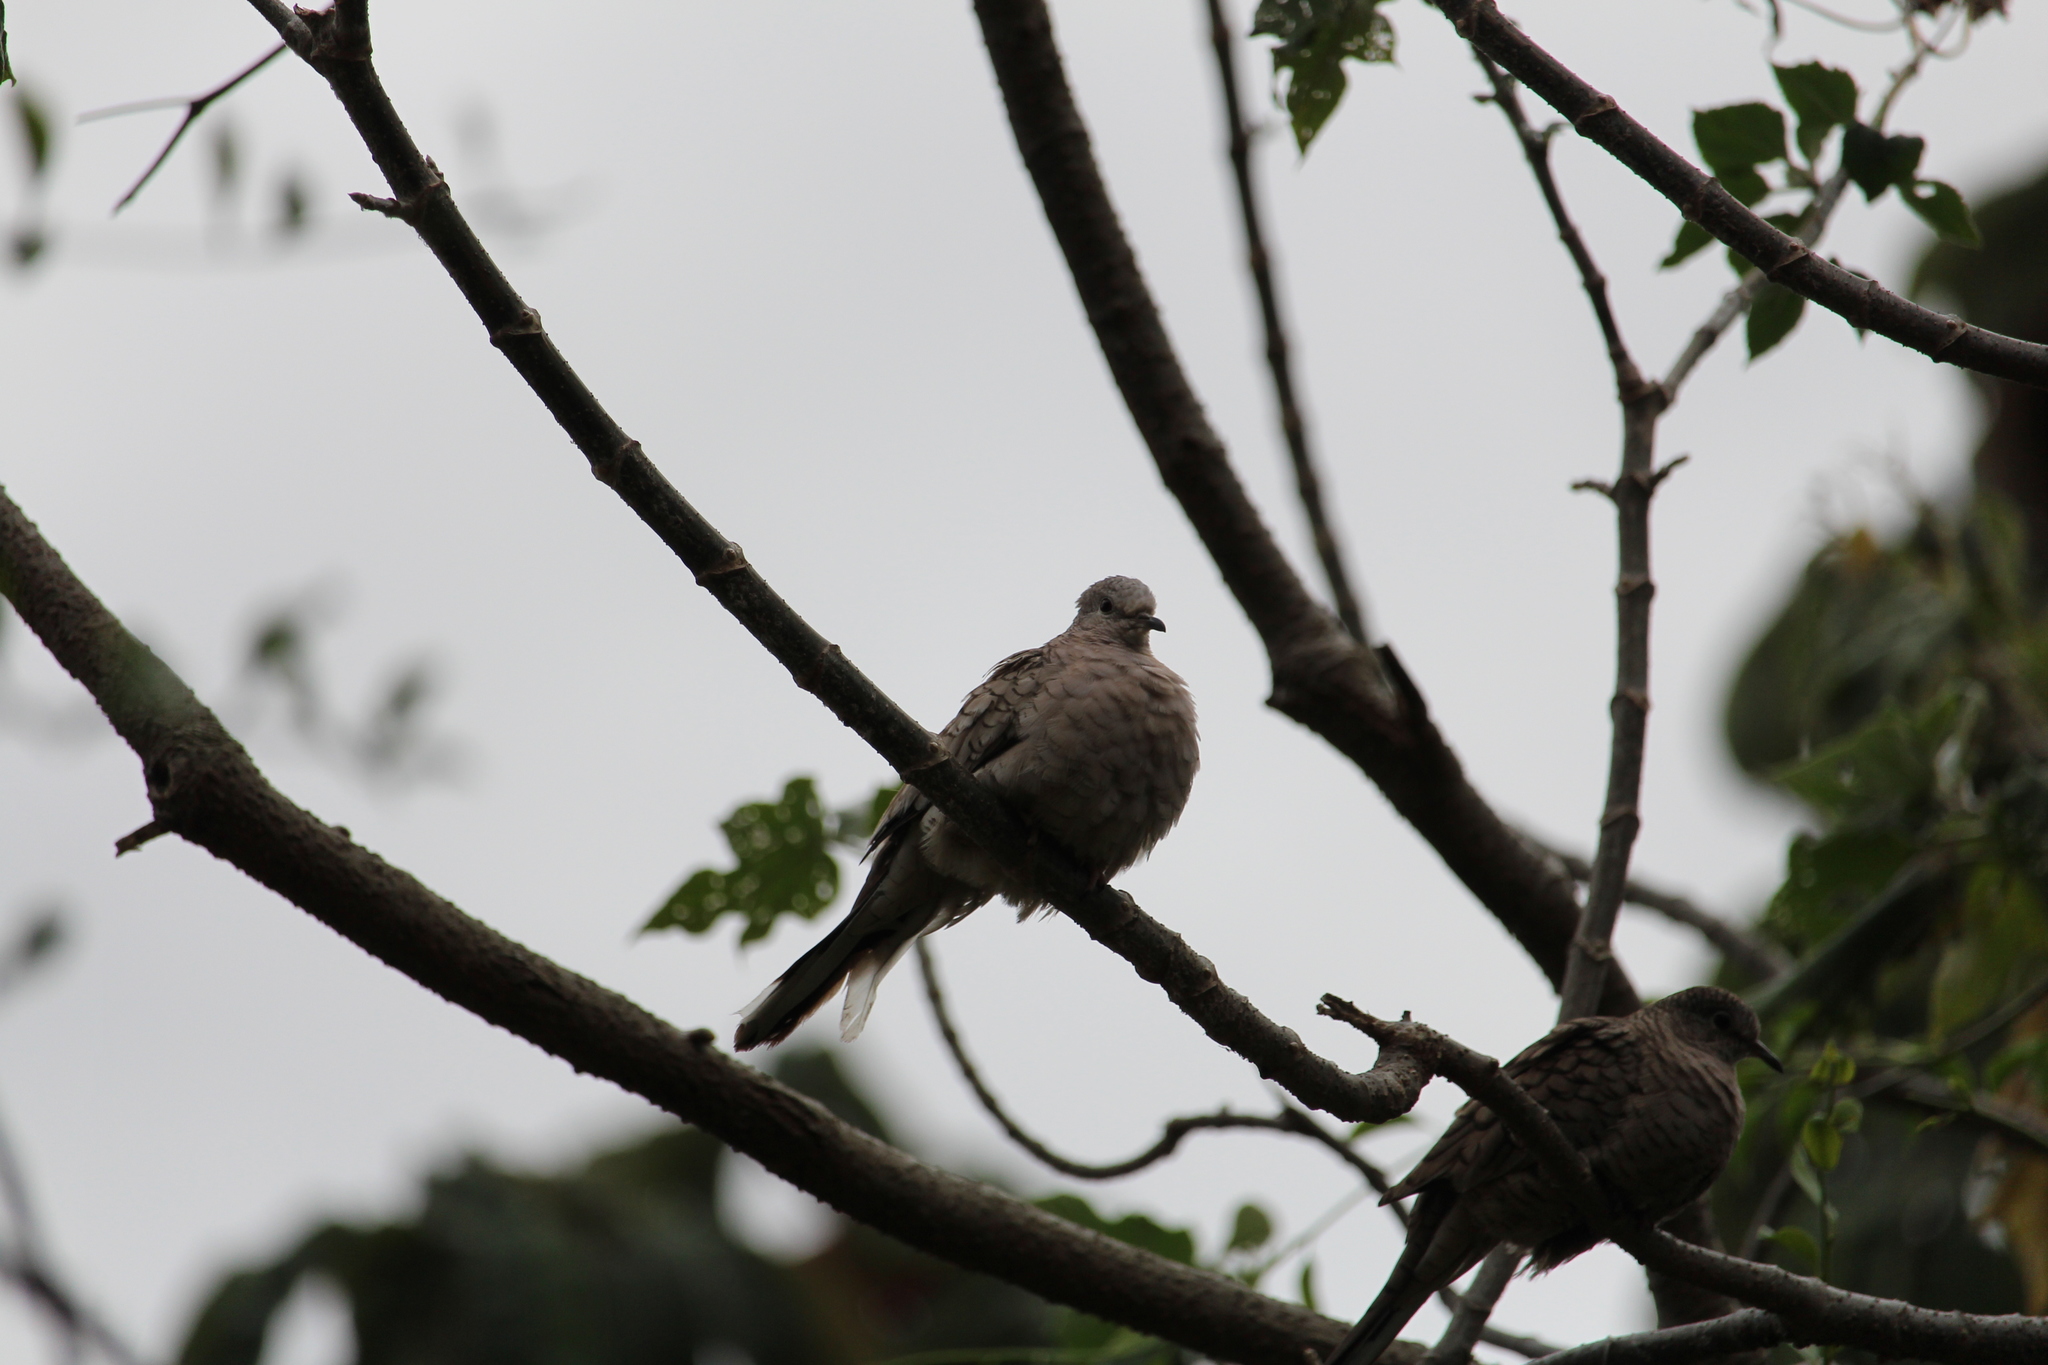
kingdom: Animalia
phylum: Chordata
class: Aves
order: Columbiformes
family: Columbidae
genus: Columbina
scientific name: Columbina inca
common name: Inca dove
